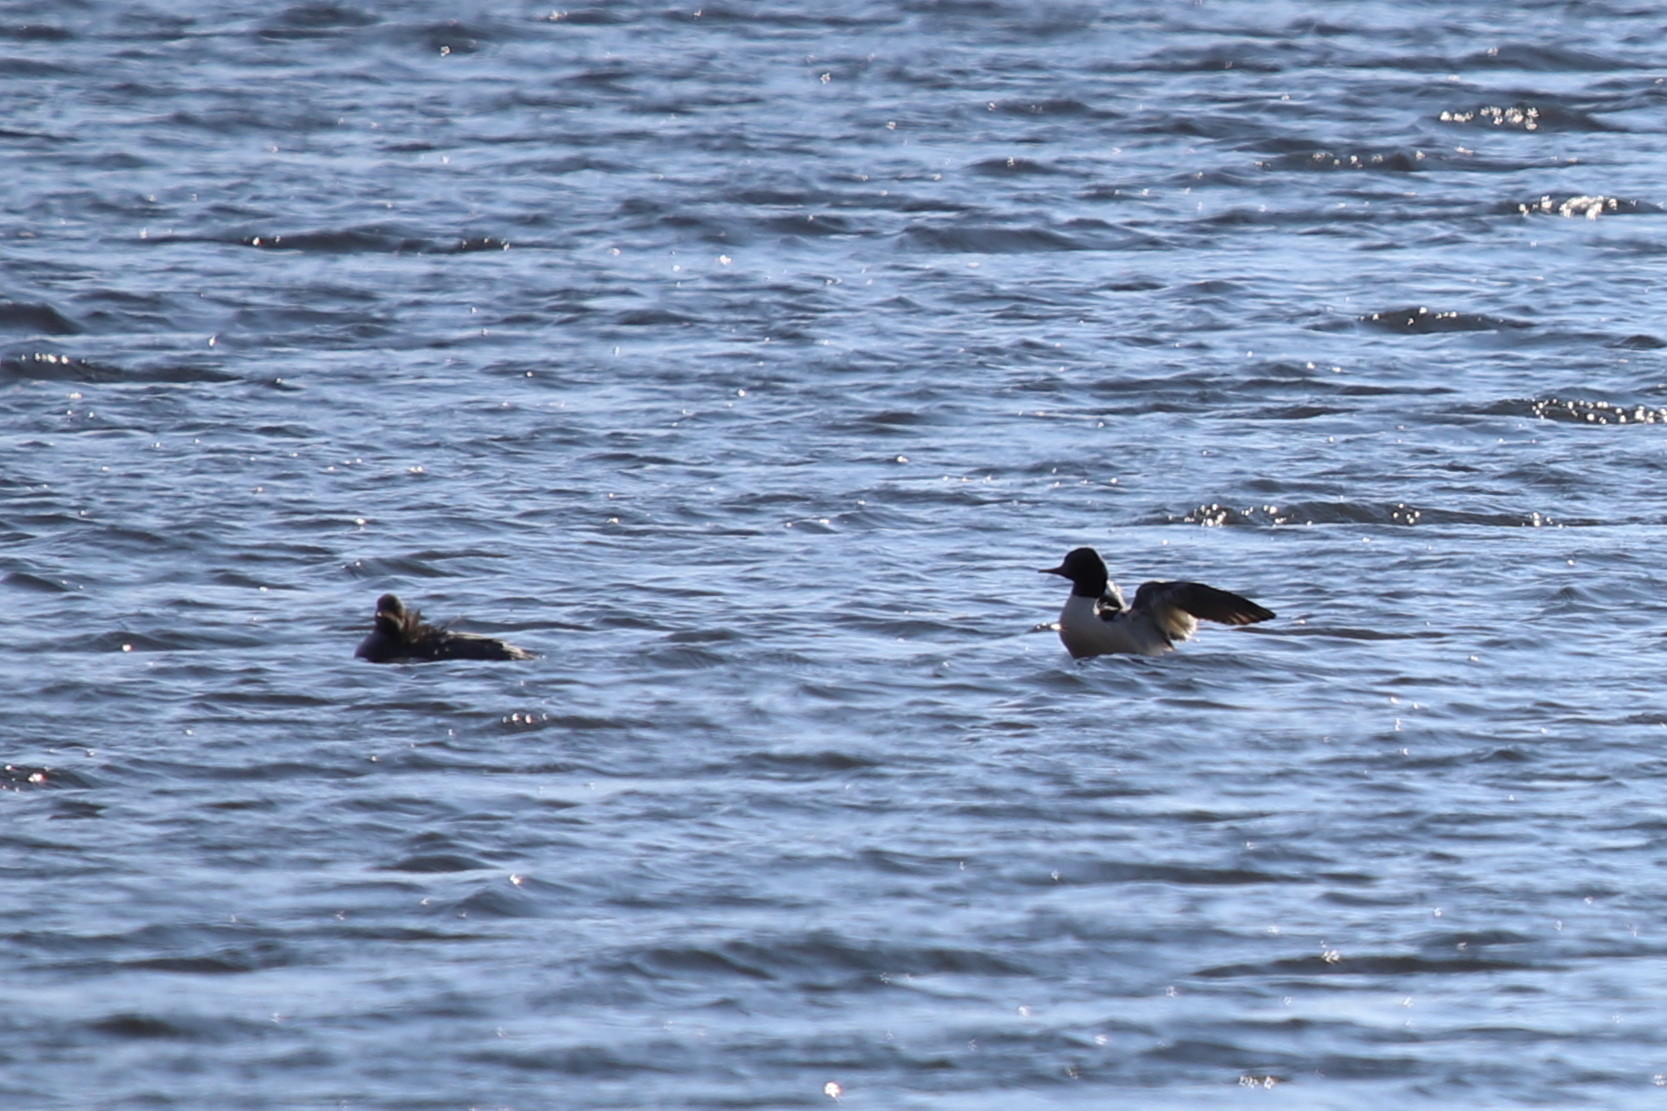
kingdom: Animalia
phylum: Chordata
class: Aves
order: Anseriformes
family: Anatidae
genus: Mergus
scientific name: Mergus merganser
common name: Common merganser
